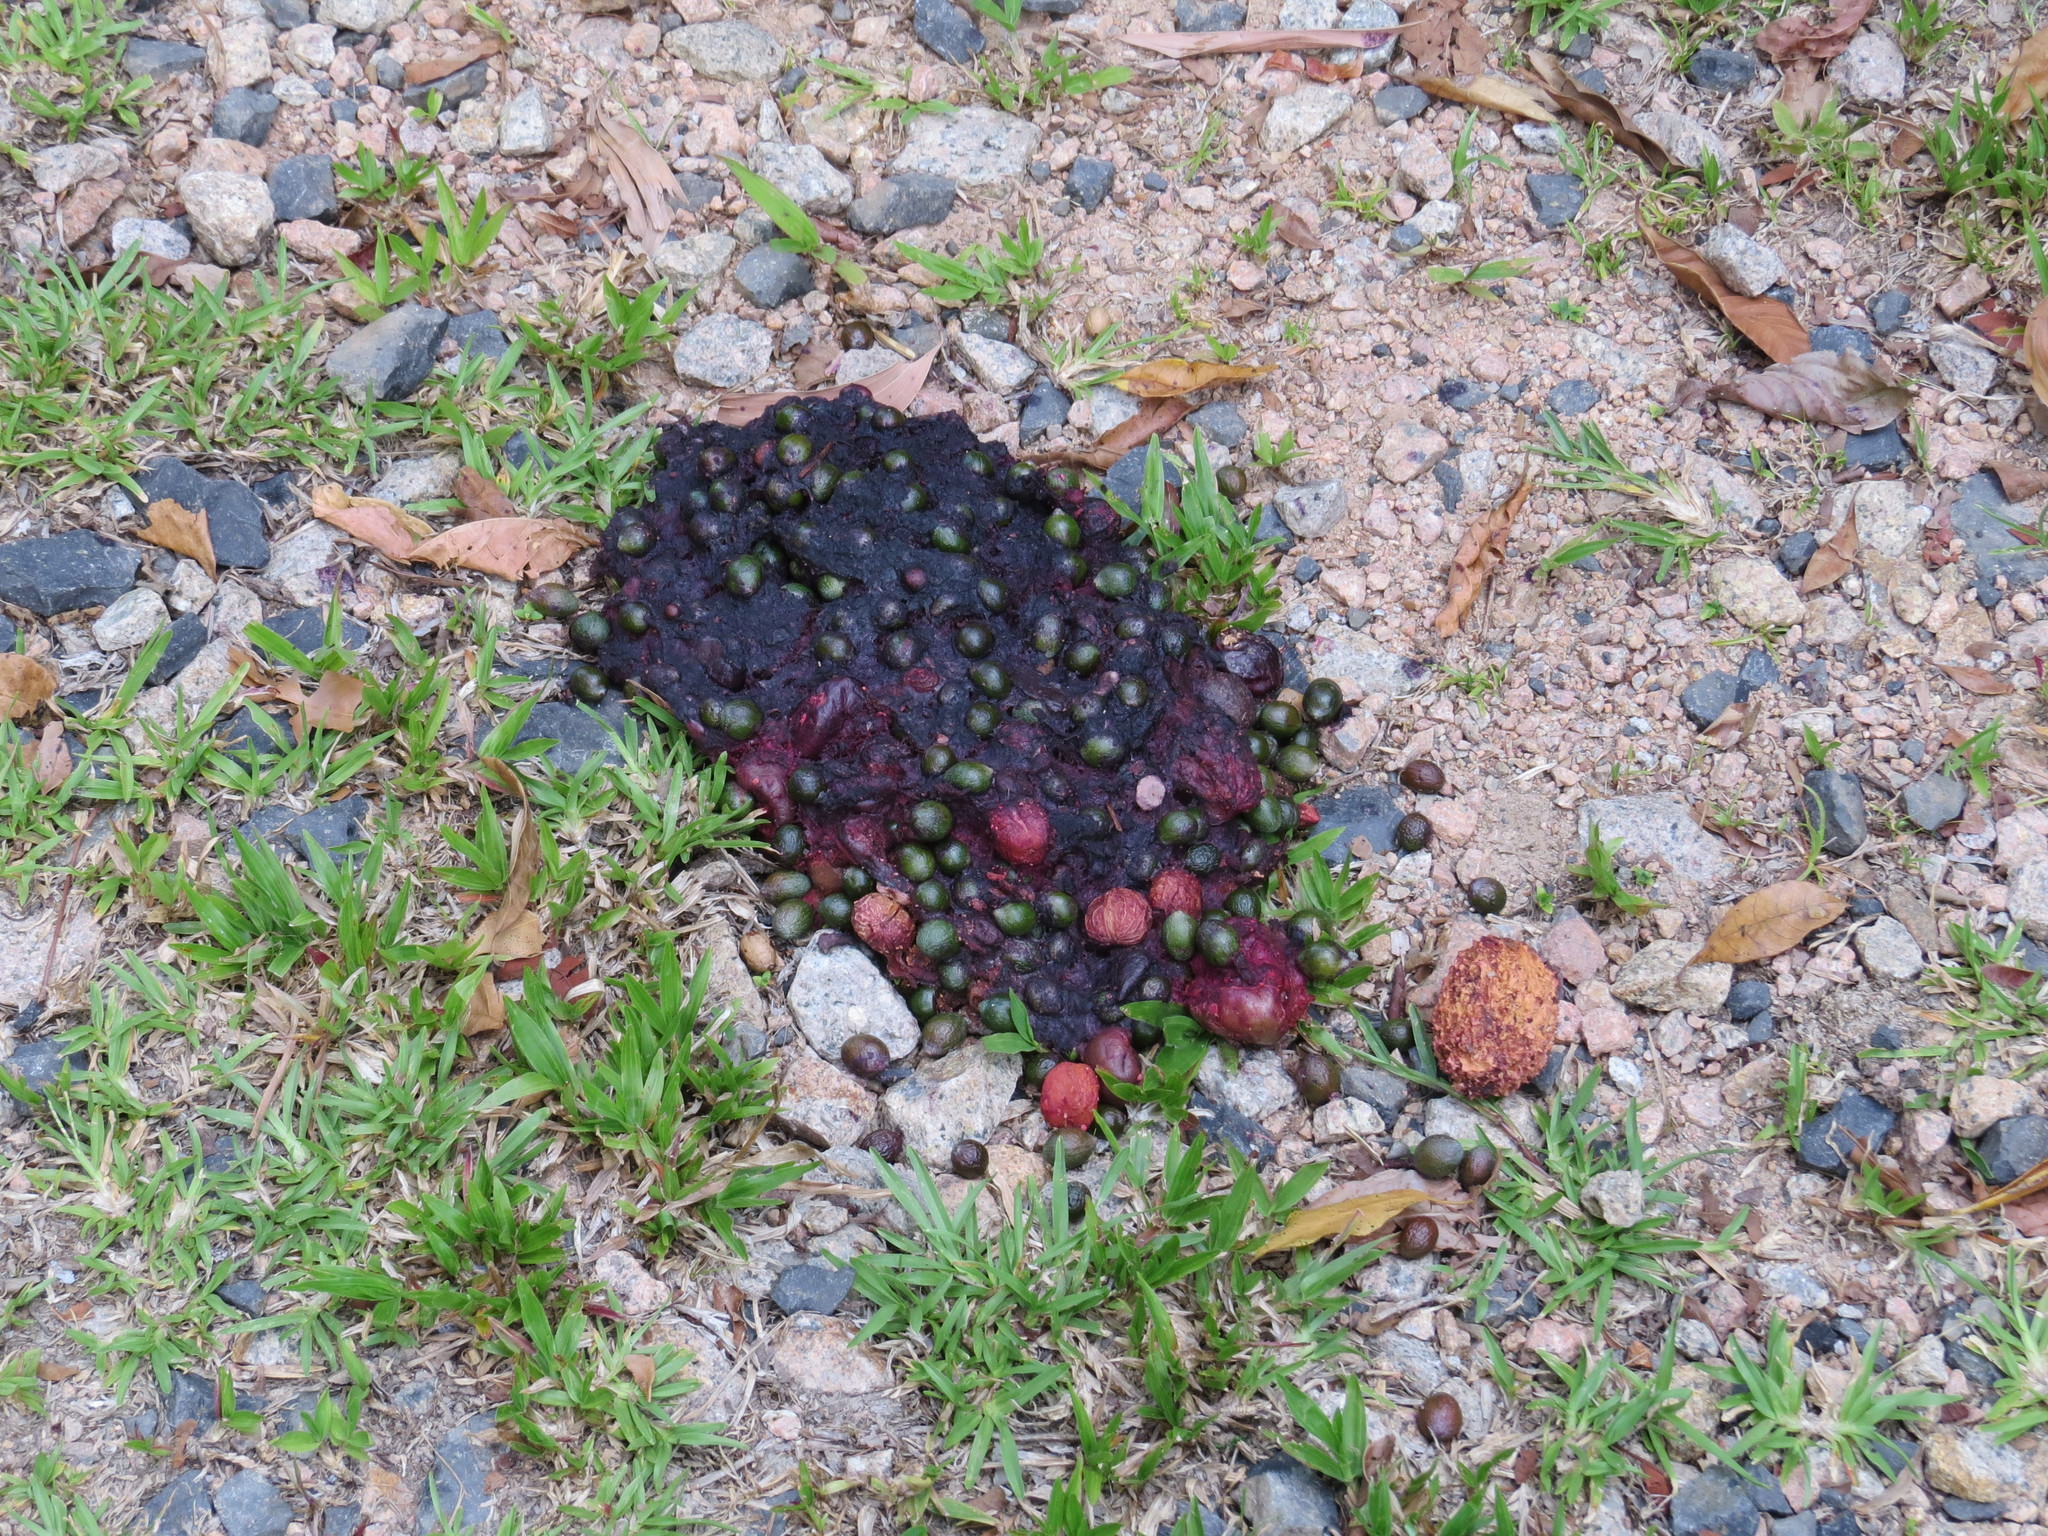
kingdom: Animalia
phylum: Chordata
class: Aves
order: Casuariiformes
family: Casuariidae
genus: Casuarius
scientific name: Casuarius casuarius
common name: Southern cassowary
